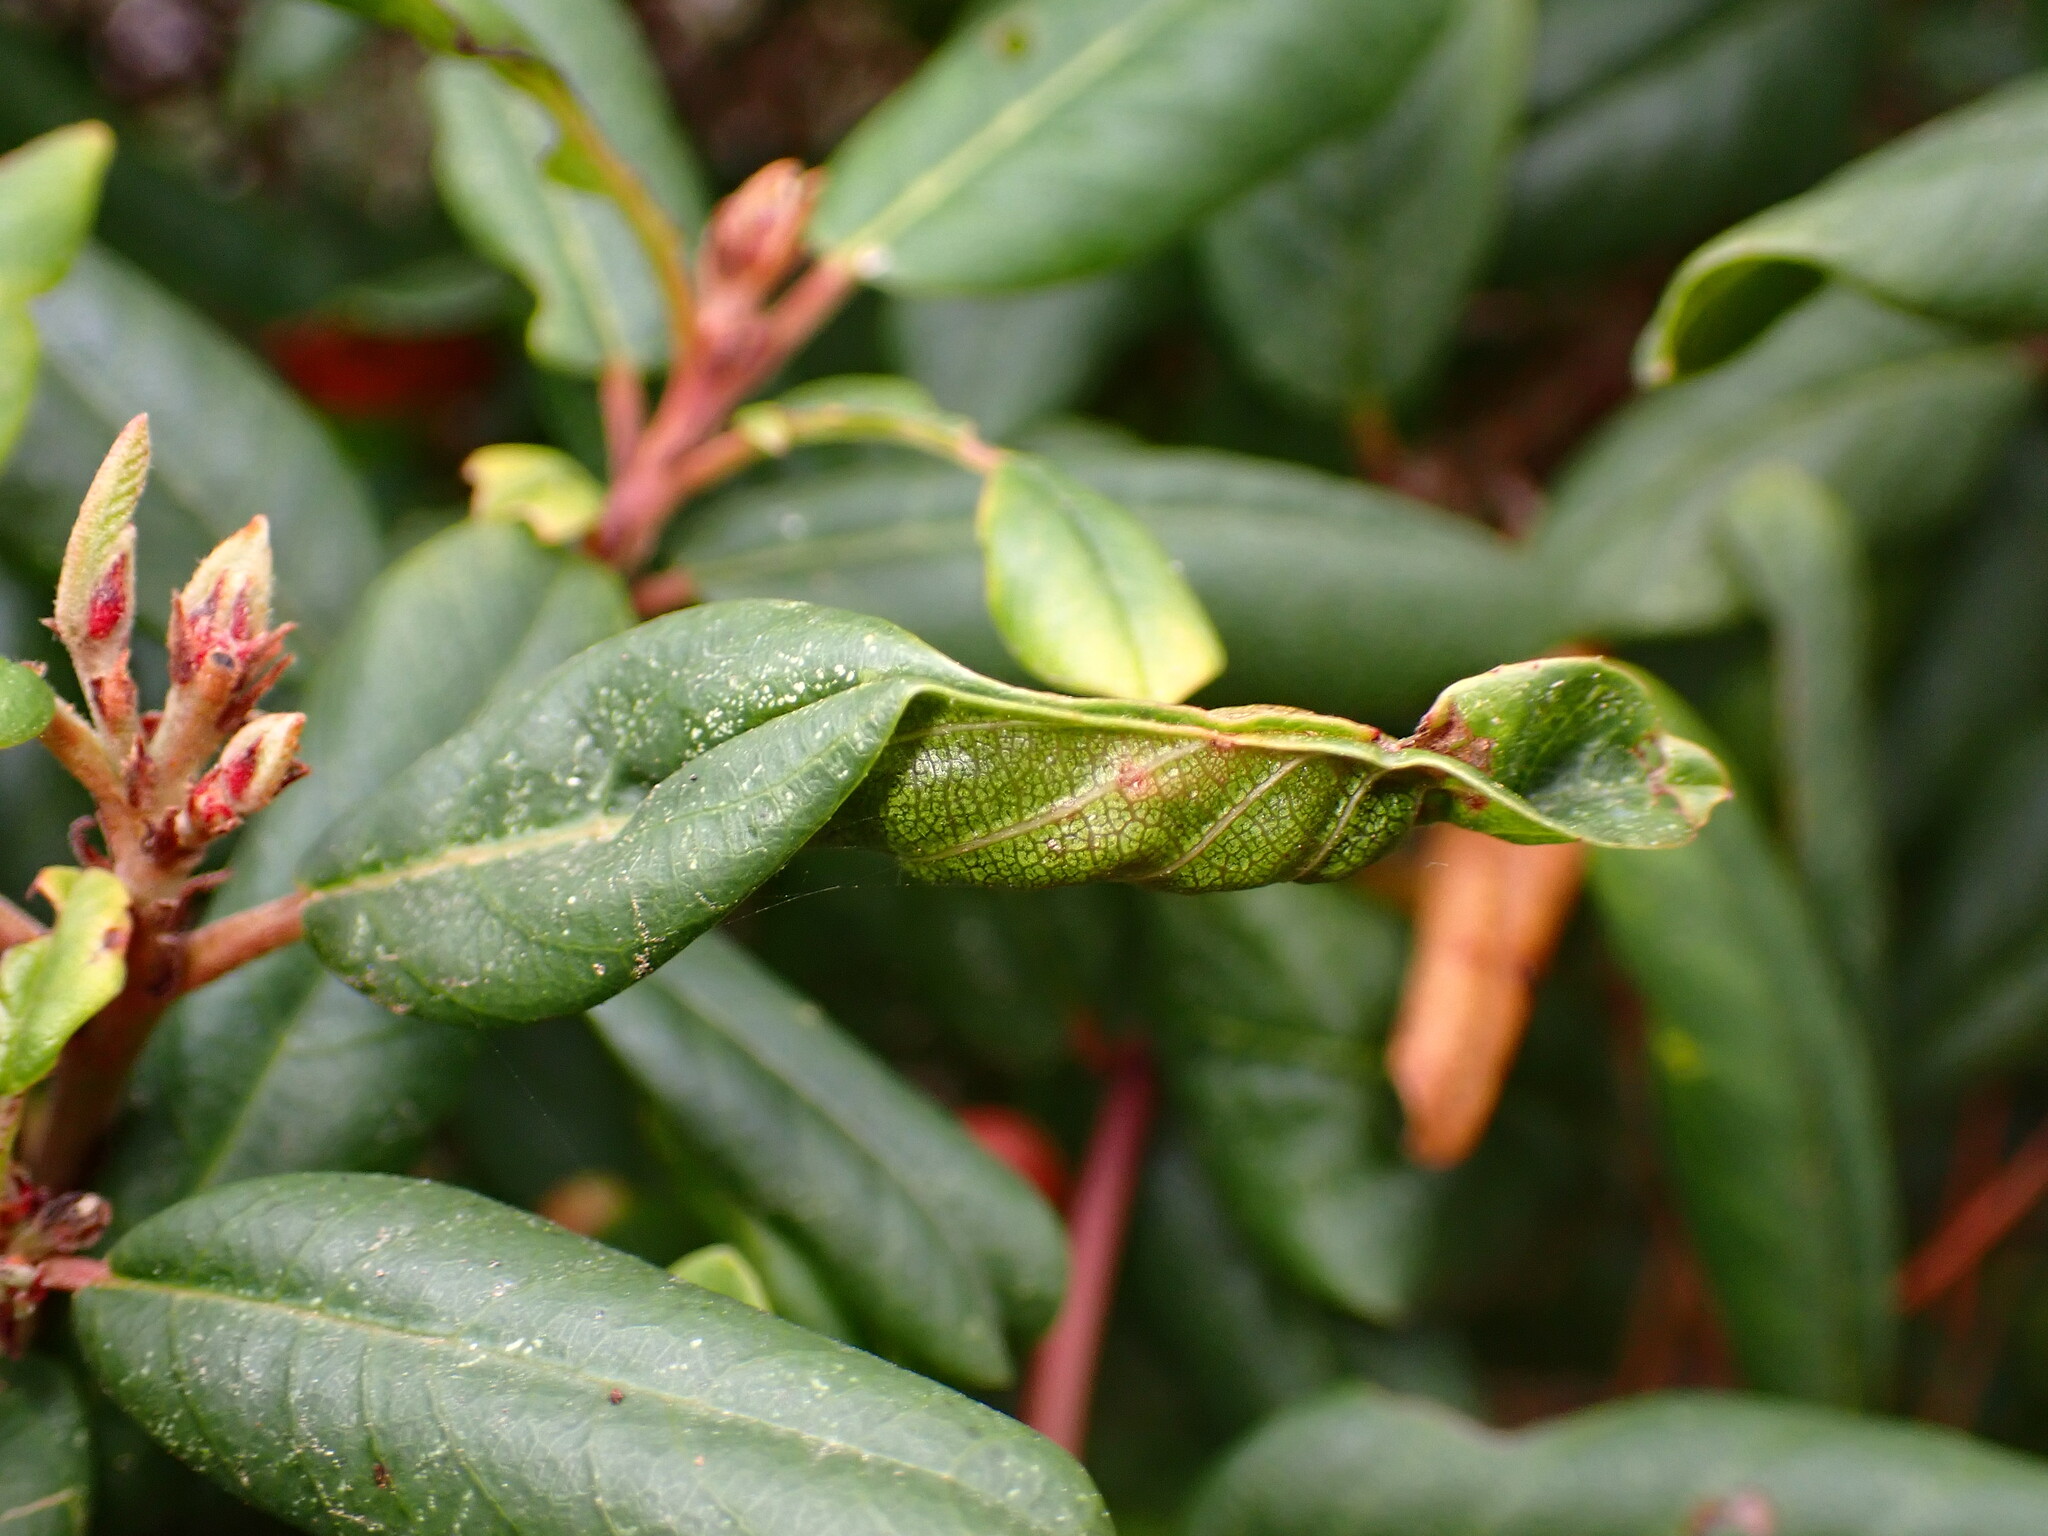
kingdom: Animalia
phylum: Arthropoda
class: Insecta
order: Lepidoptera
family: Cosmopterigidae
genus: Sorhagenia
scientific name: Sorhagenia nimbosus
